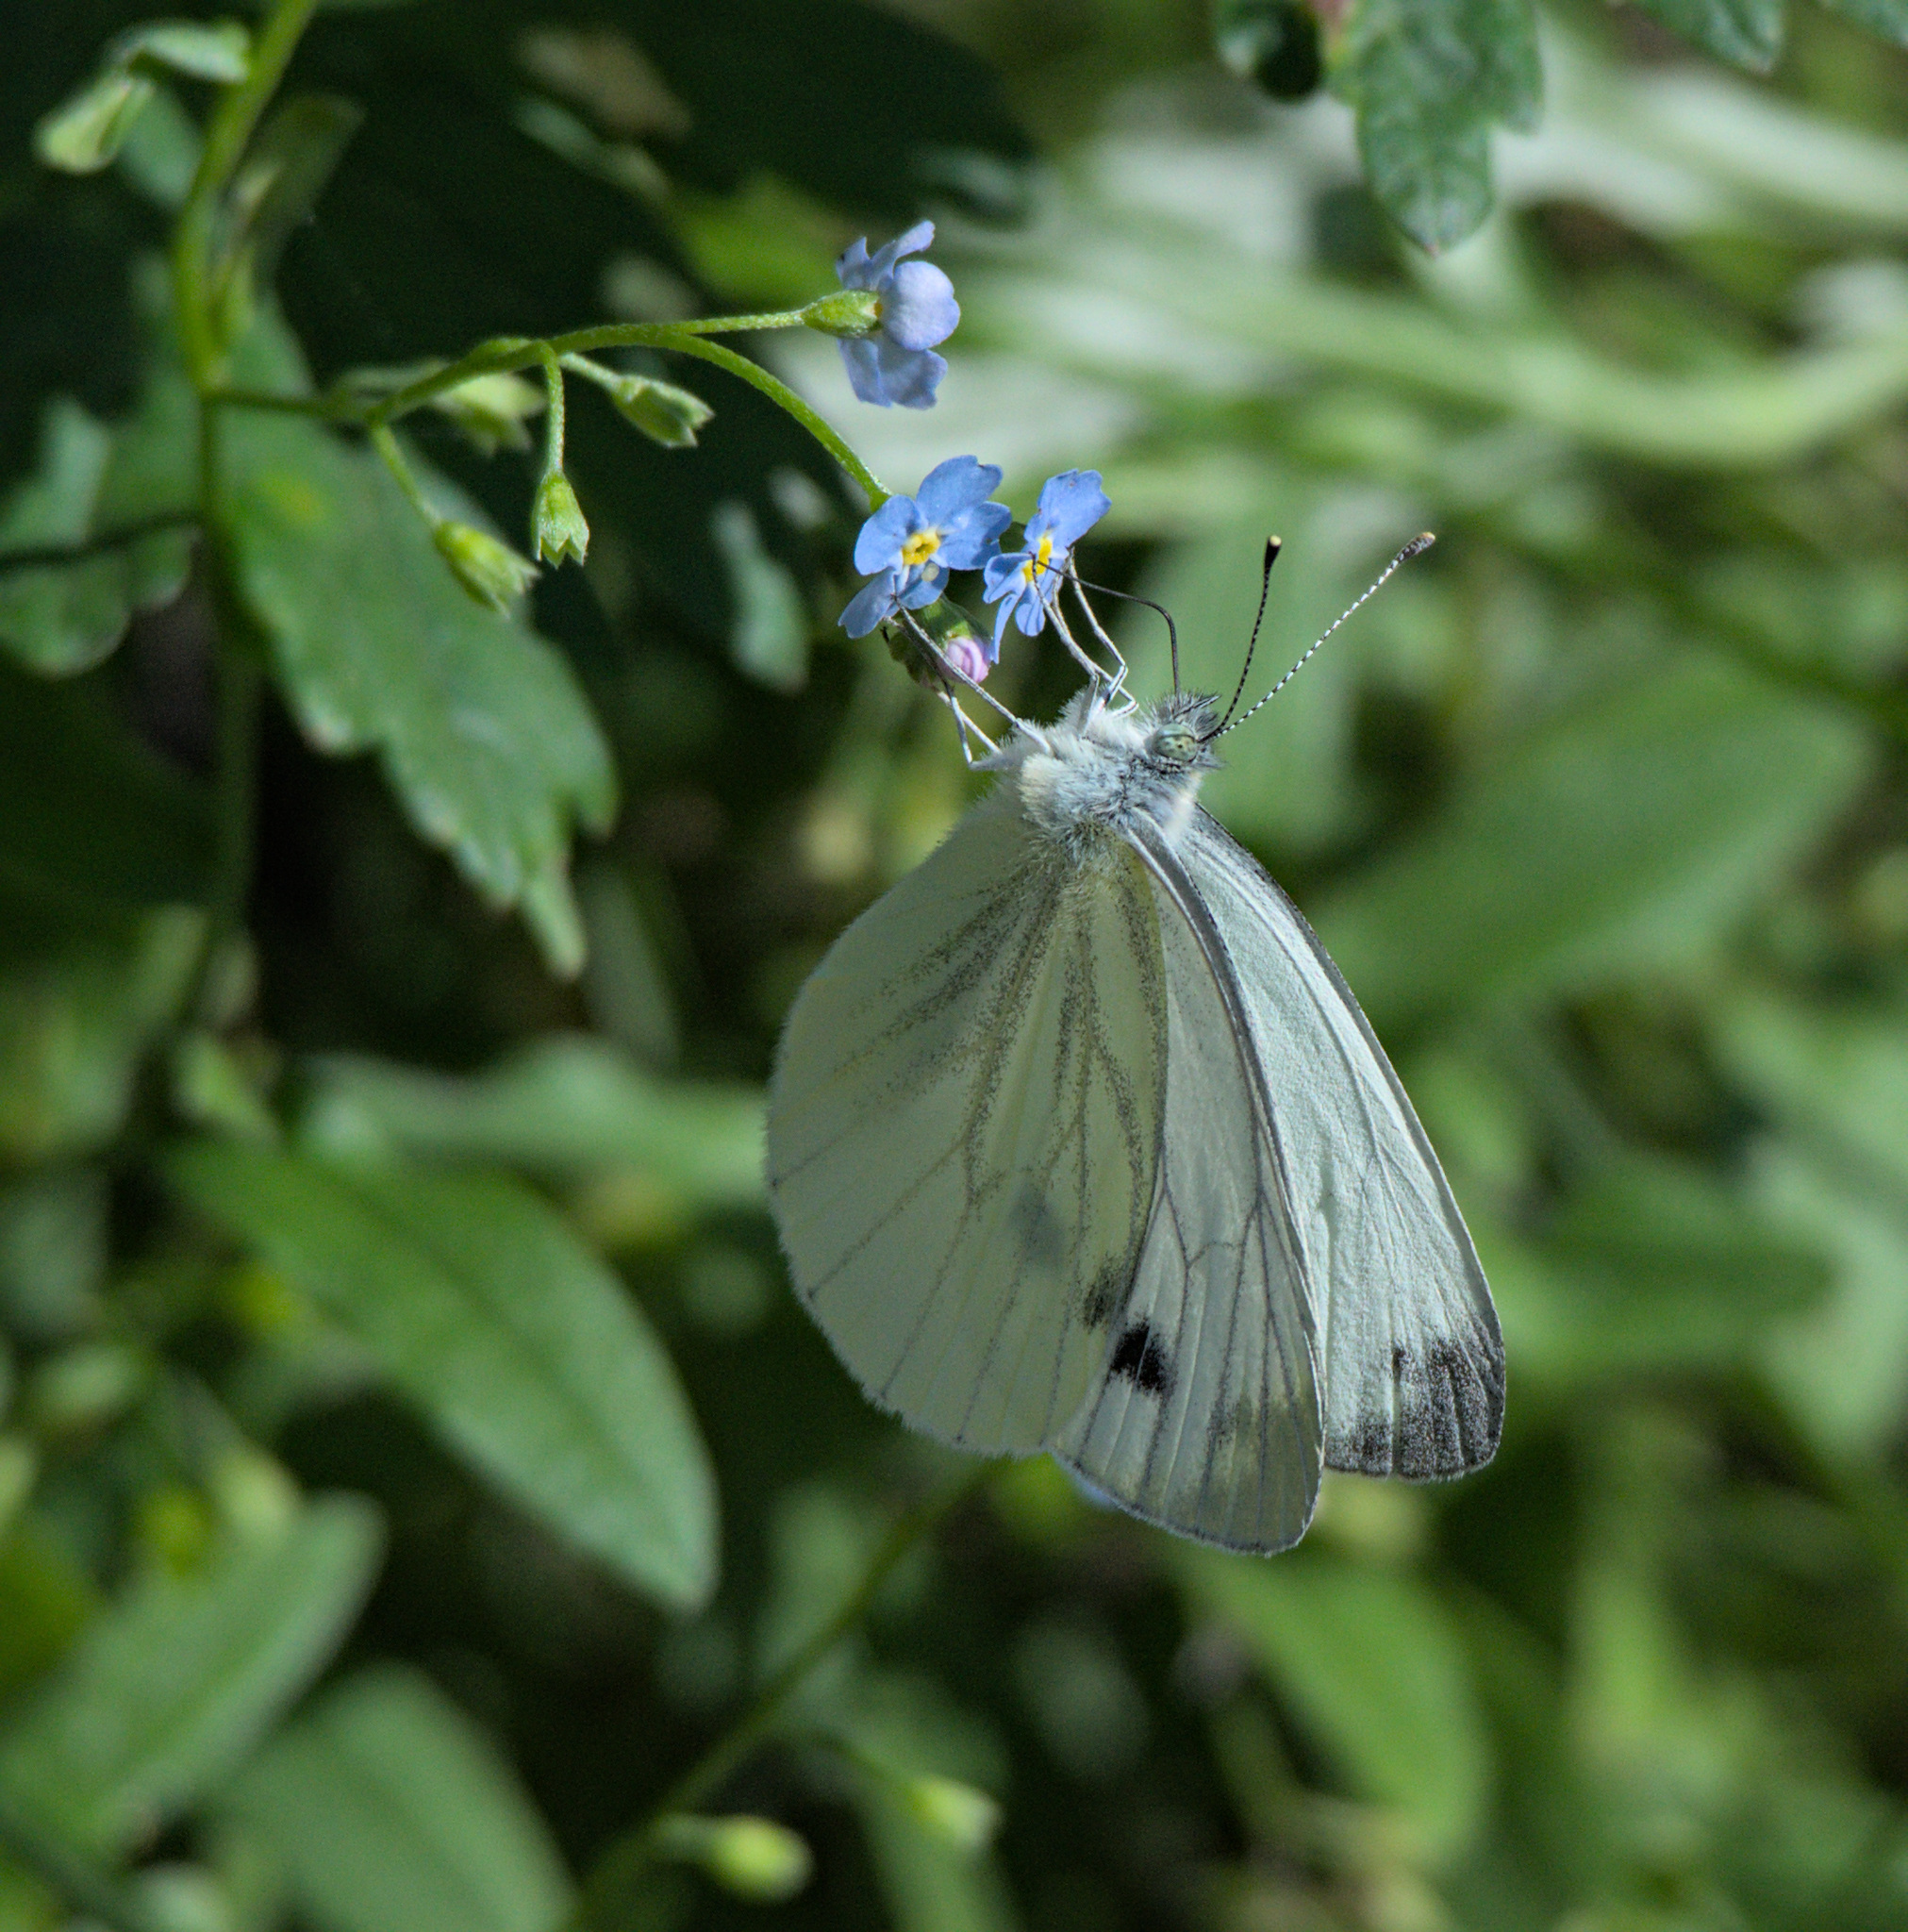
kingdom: Animalia
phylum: Arthropoda
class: Insecta
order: Lepidoptera
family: Pieridae
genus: Pieris
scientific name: Pieris napi
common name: Green-veined white
